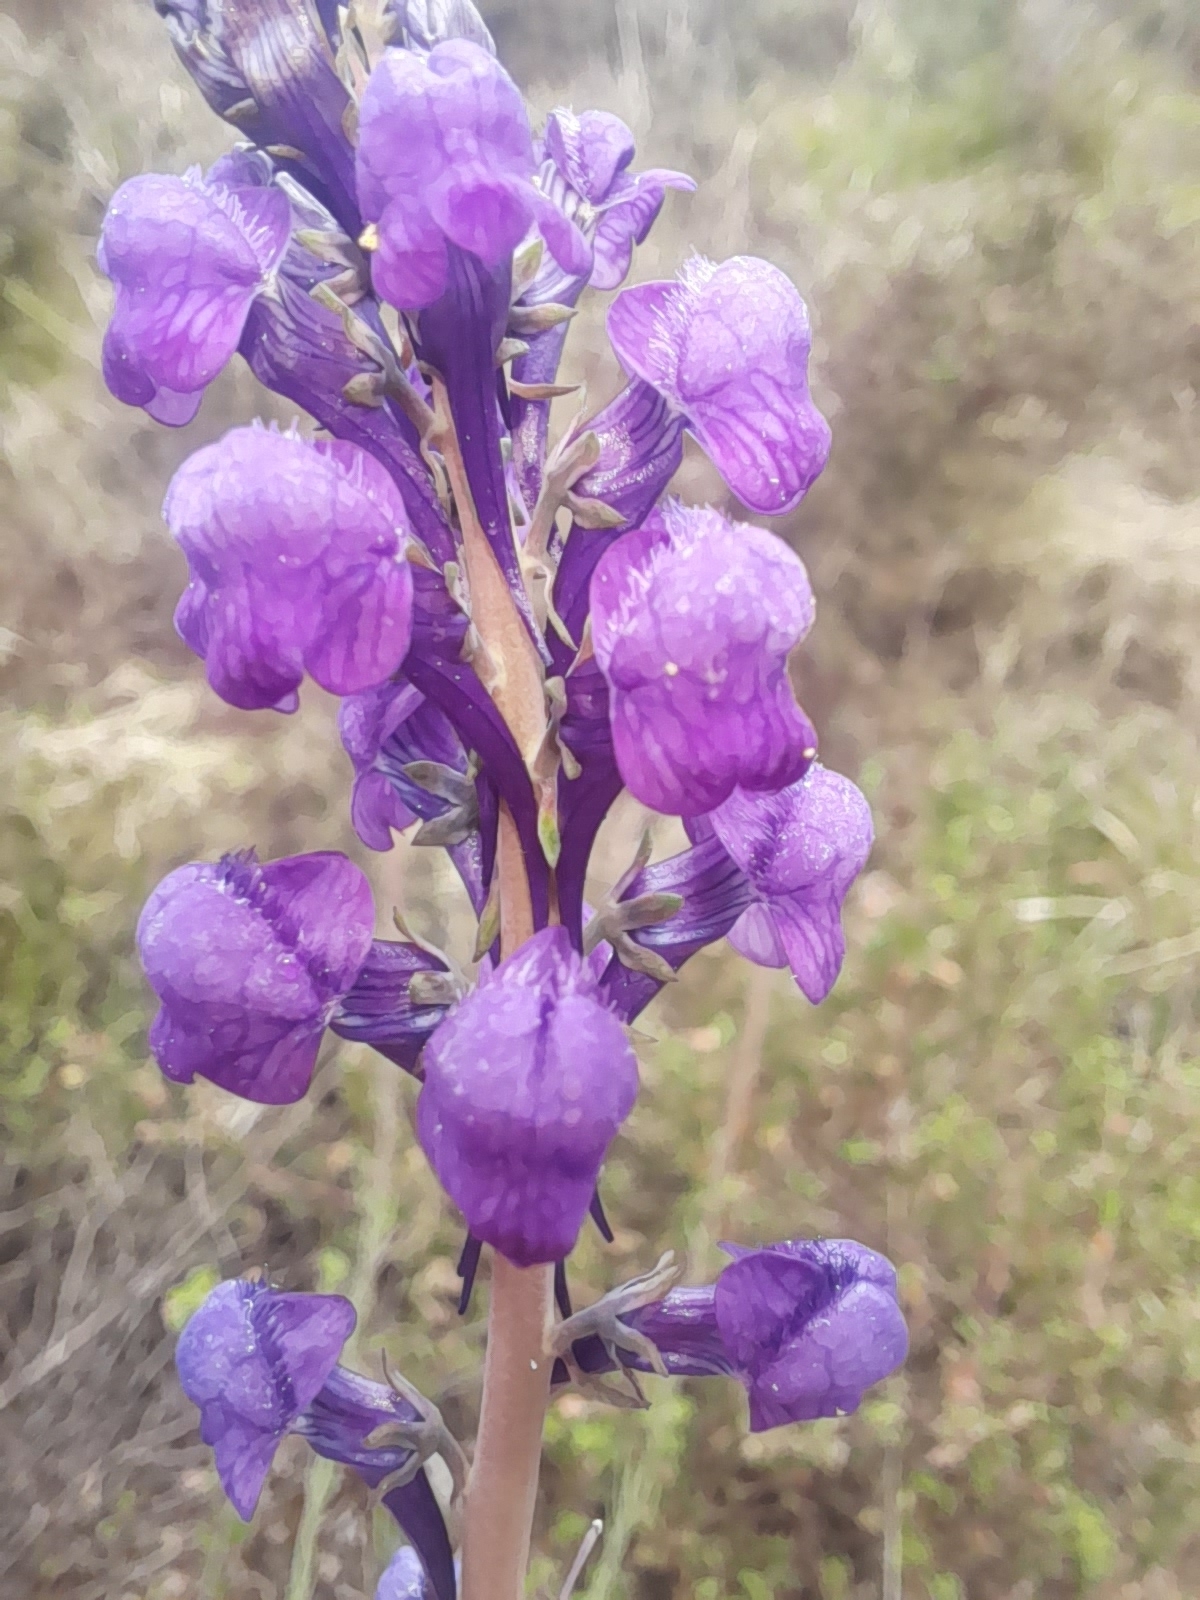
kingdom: Plantae
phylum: Tracheophyta
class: Magnoliopsida
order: Lamiales
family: Plantaginaceae
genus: Linaria
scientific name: Linaria purpurea
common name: Purple toadflax
